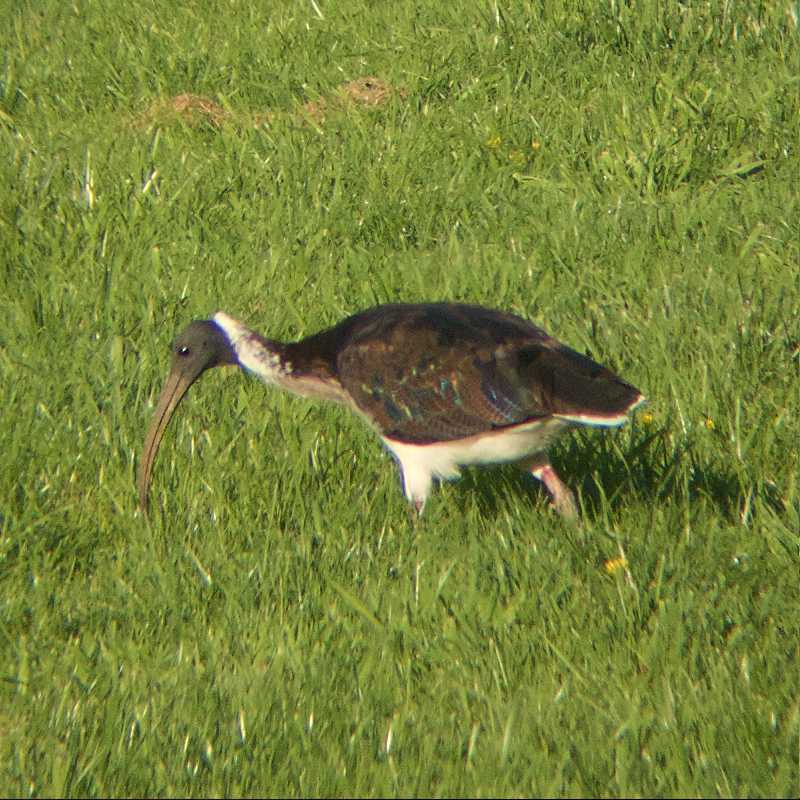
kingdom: Animalia
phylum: Chordata
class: Aves
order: Pelecaniformes
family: Threskiornithidae
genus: Threskiornis
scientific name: Threskiornis spinicollis
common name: Straw-necked ibis
